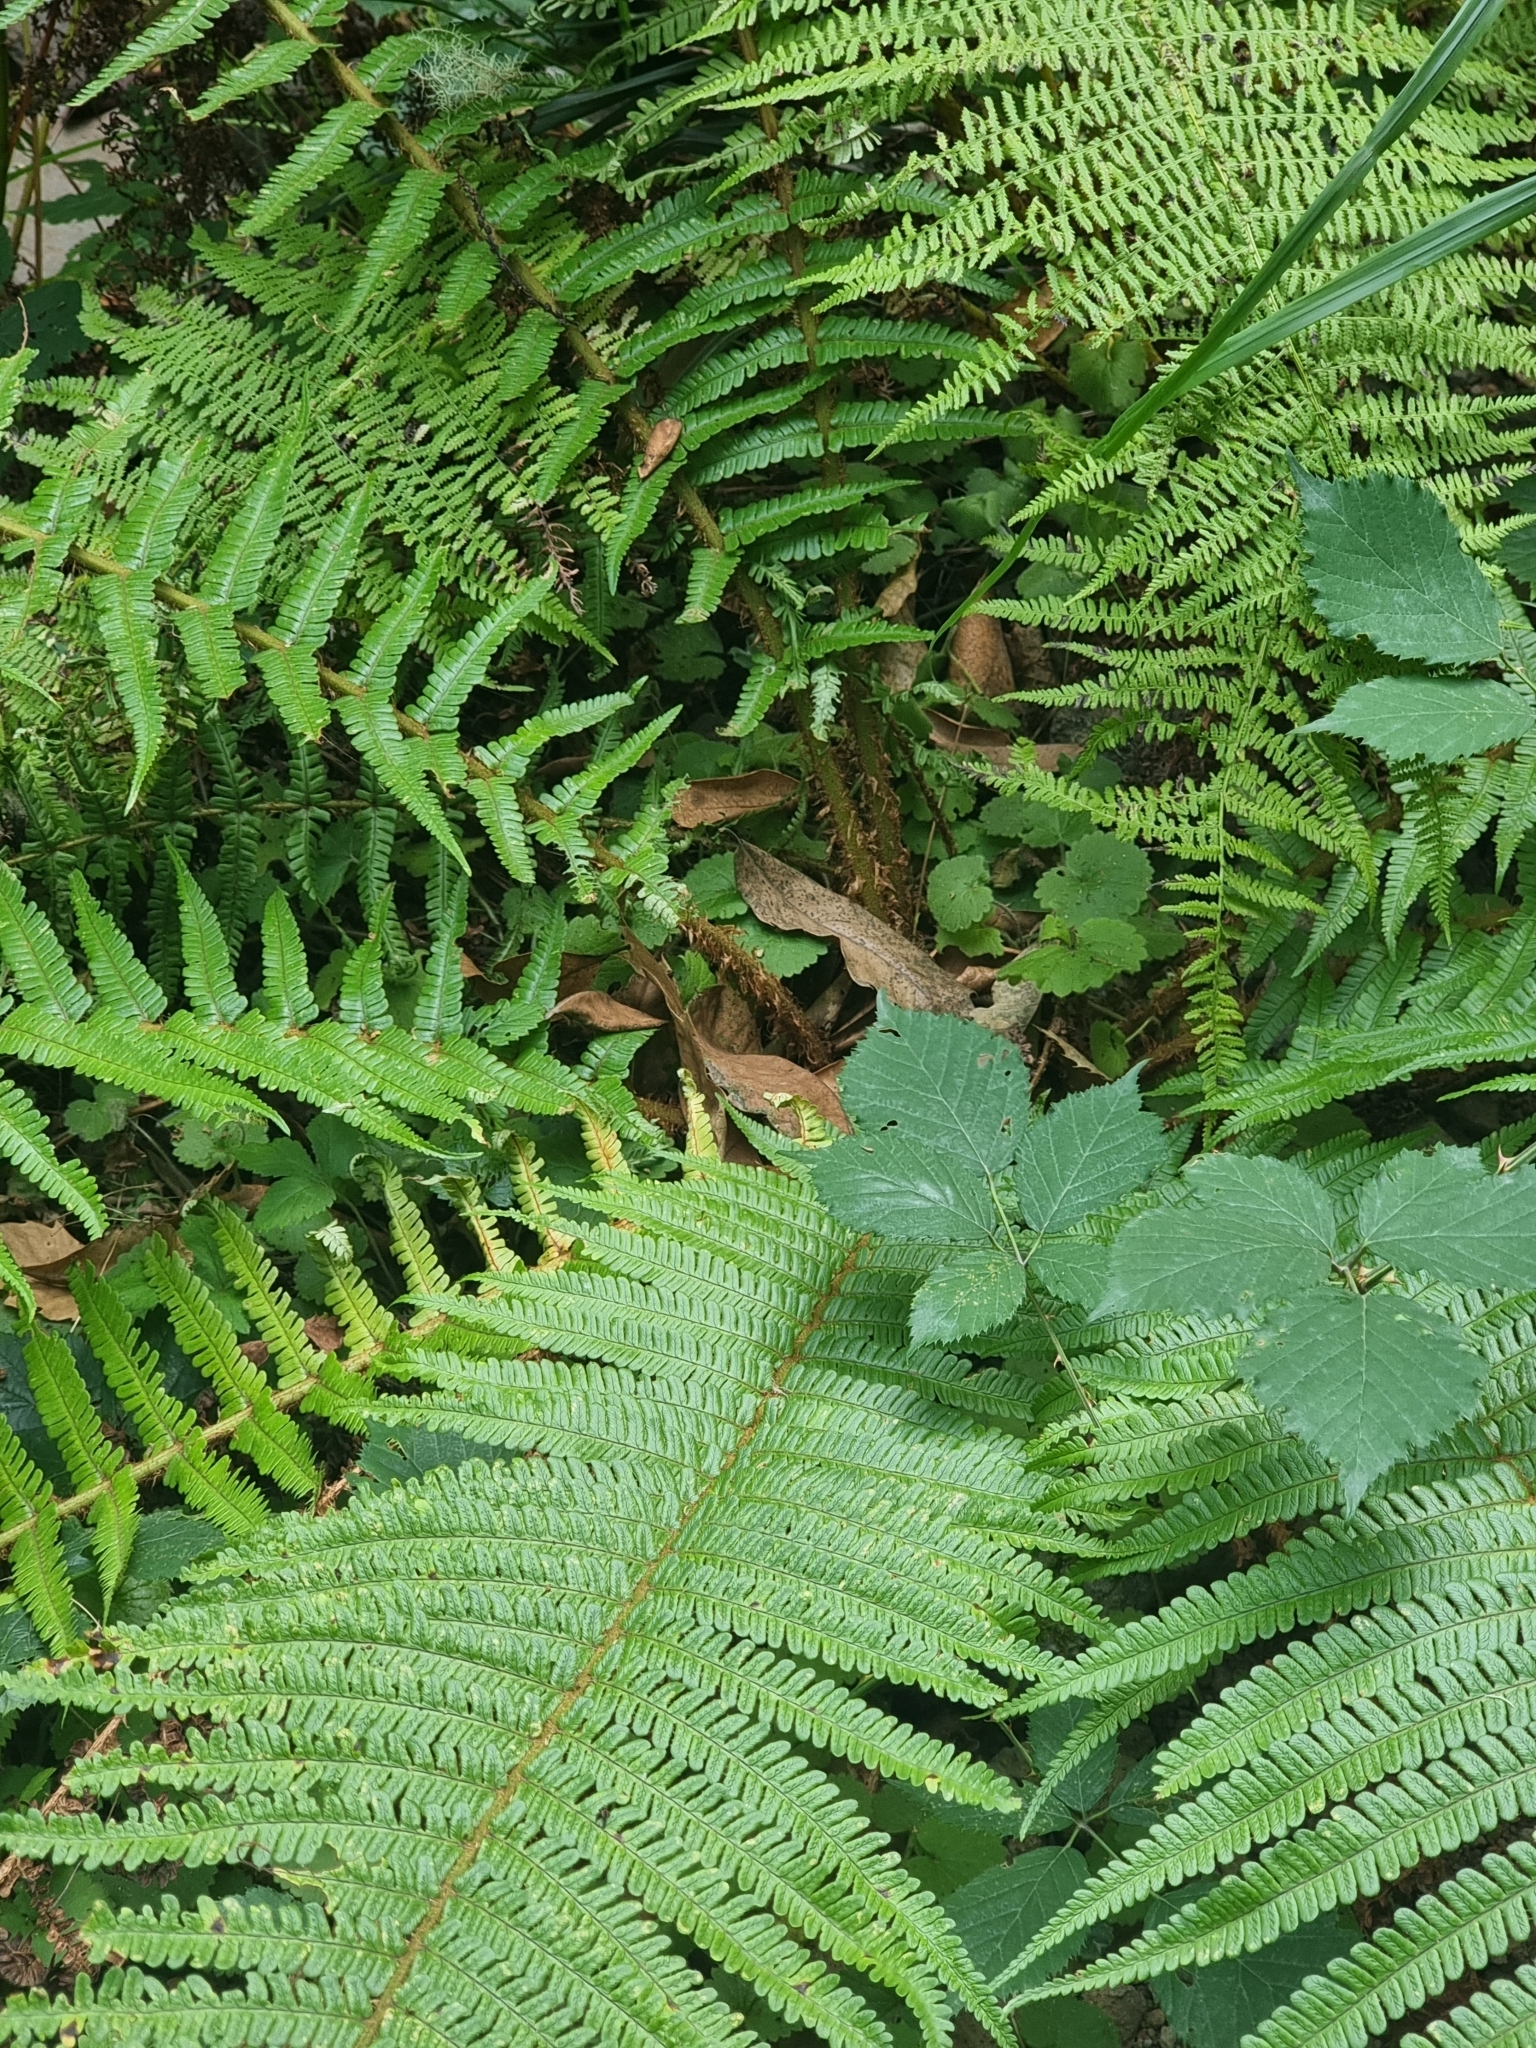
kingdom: Plantae
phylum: Tracheophyta
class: Polypodiopsida
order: Polypodiales
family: Dryopteridaceae
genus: Dryopteris
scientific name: Dryopteris affinis
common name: Scaly male fern
